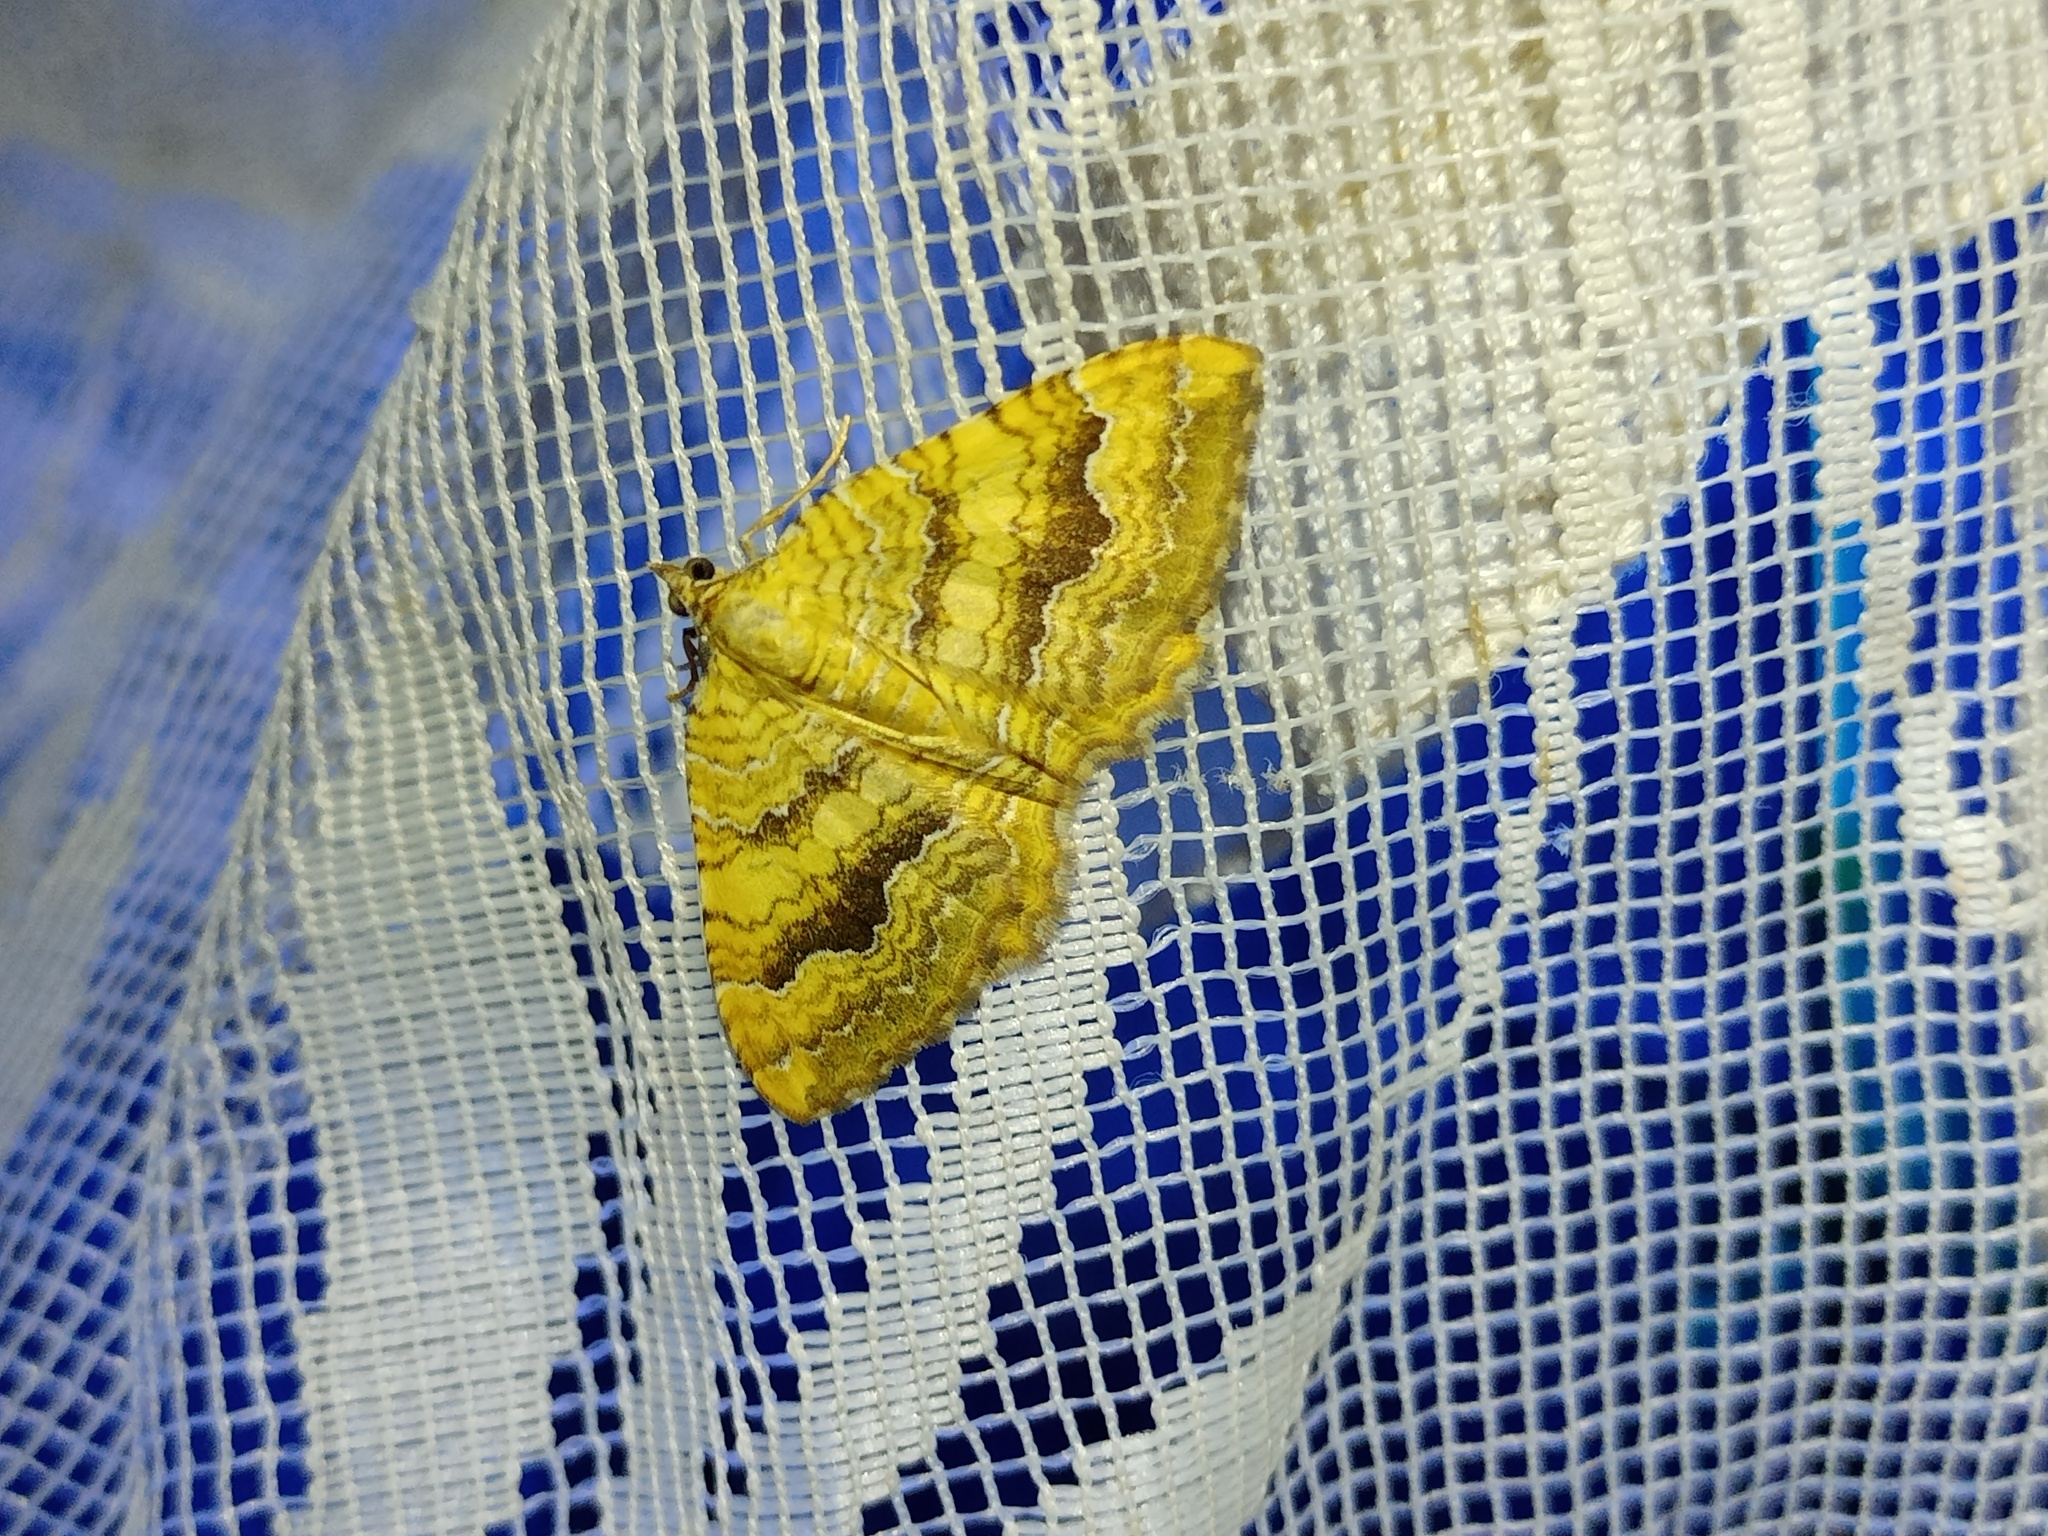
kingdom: Animalia
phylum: Arthropoda
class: Insecta
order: Lepidoptera
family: Geometridae
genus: Camptogramma
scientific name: Camptogramma bilineata
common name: Yellow shell
